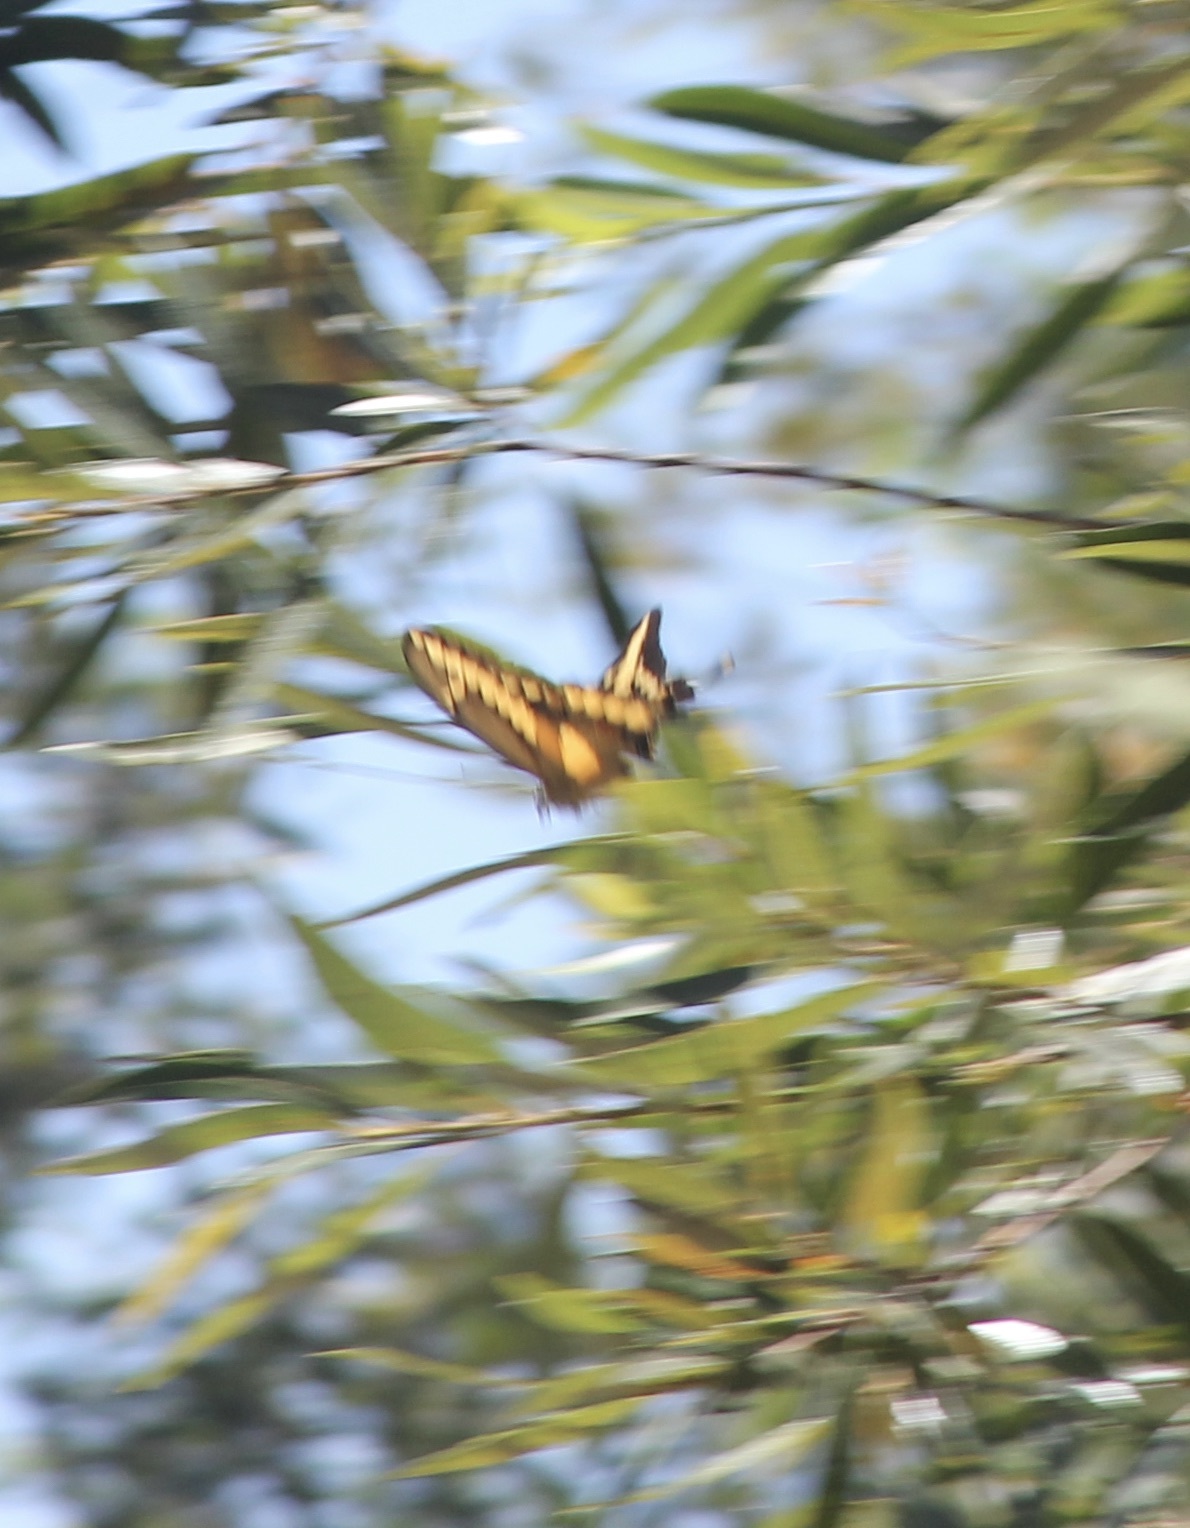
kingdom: Animalia
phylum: Arthropoda
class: Insecta
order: Lepidoptera
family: Papilionidae
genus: Papilio
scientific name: Papilio rumiko
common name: Western giant swallowtail
